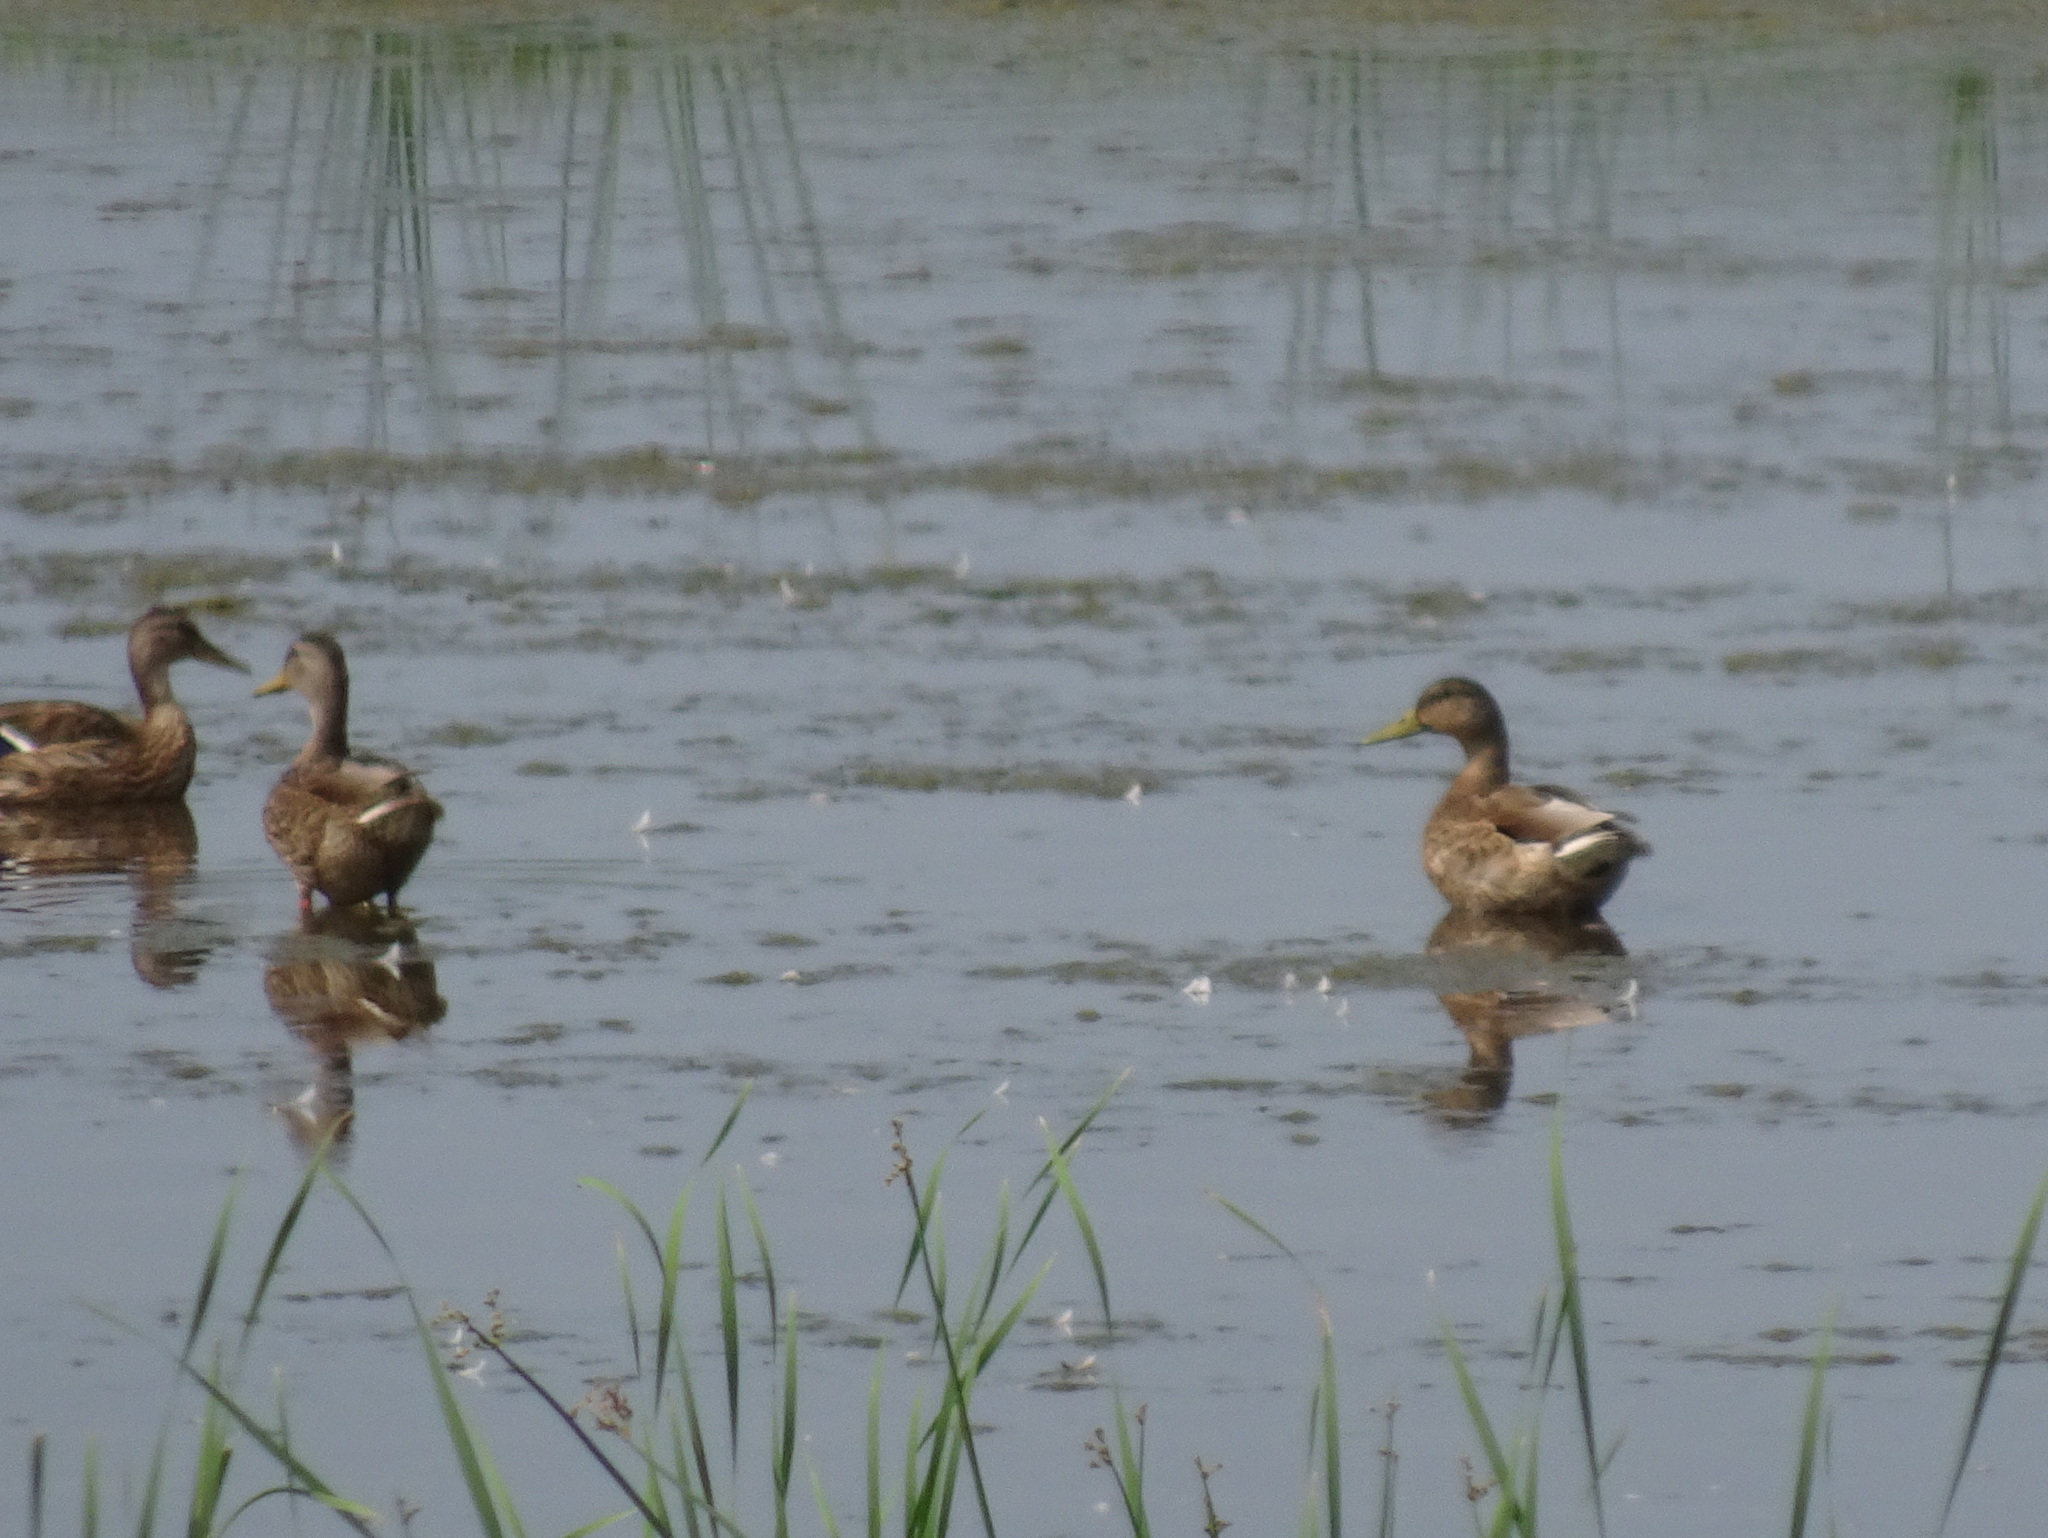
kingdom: Animalia
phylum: Chordata
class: Aves
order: Anseriformes
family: Anatidae
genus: Anas
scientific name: Anas platyrhynchos
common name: Mallard
